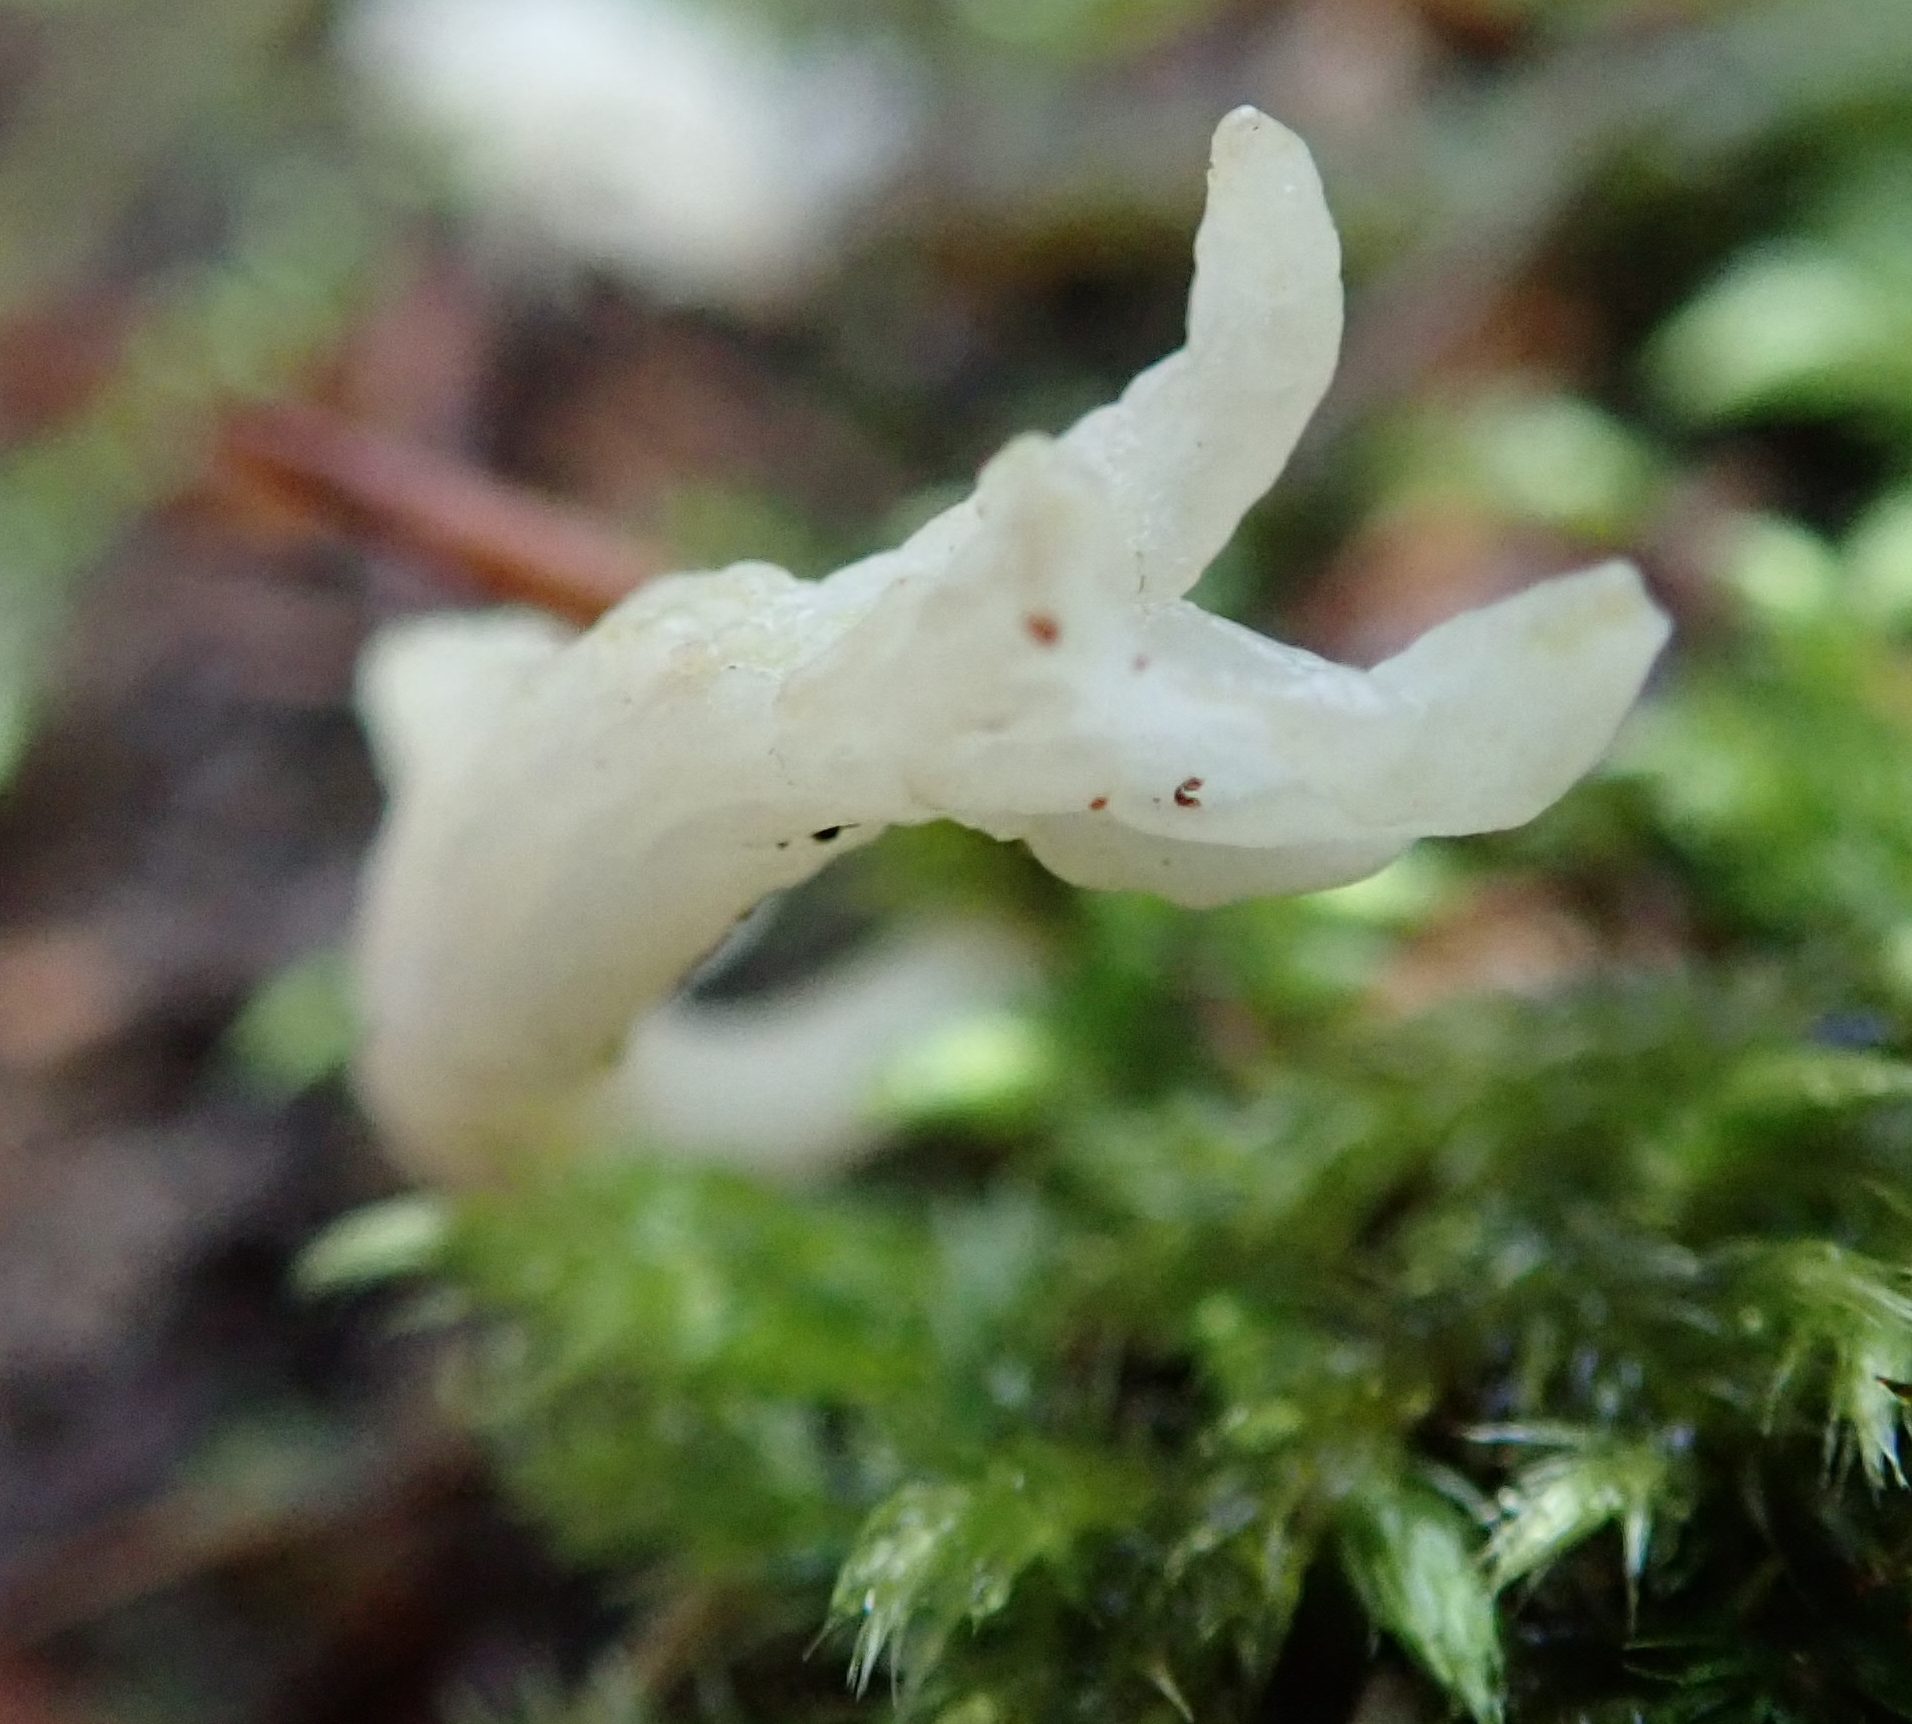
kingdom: Fungi
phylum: Basidiomycota
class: Agaricomycetes
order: Cantharellales
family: Hydnaceae
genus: Clavulina
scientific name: Clavulina coralloides
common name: Crested coral
